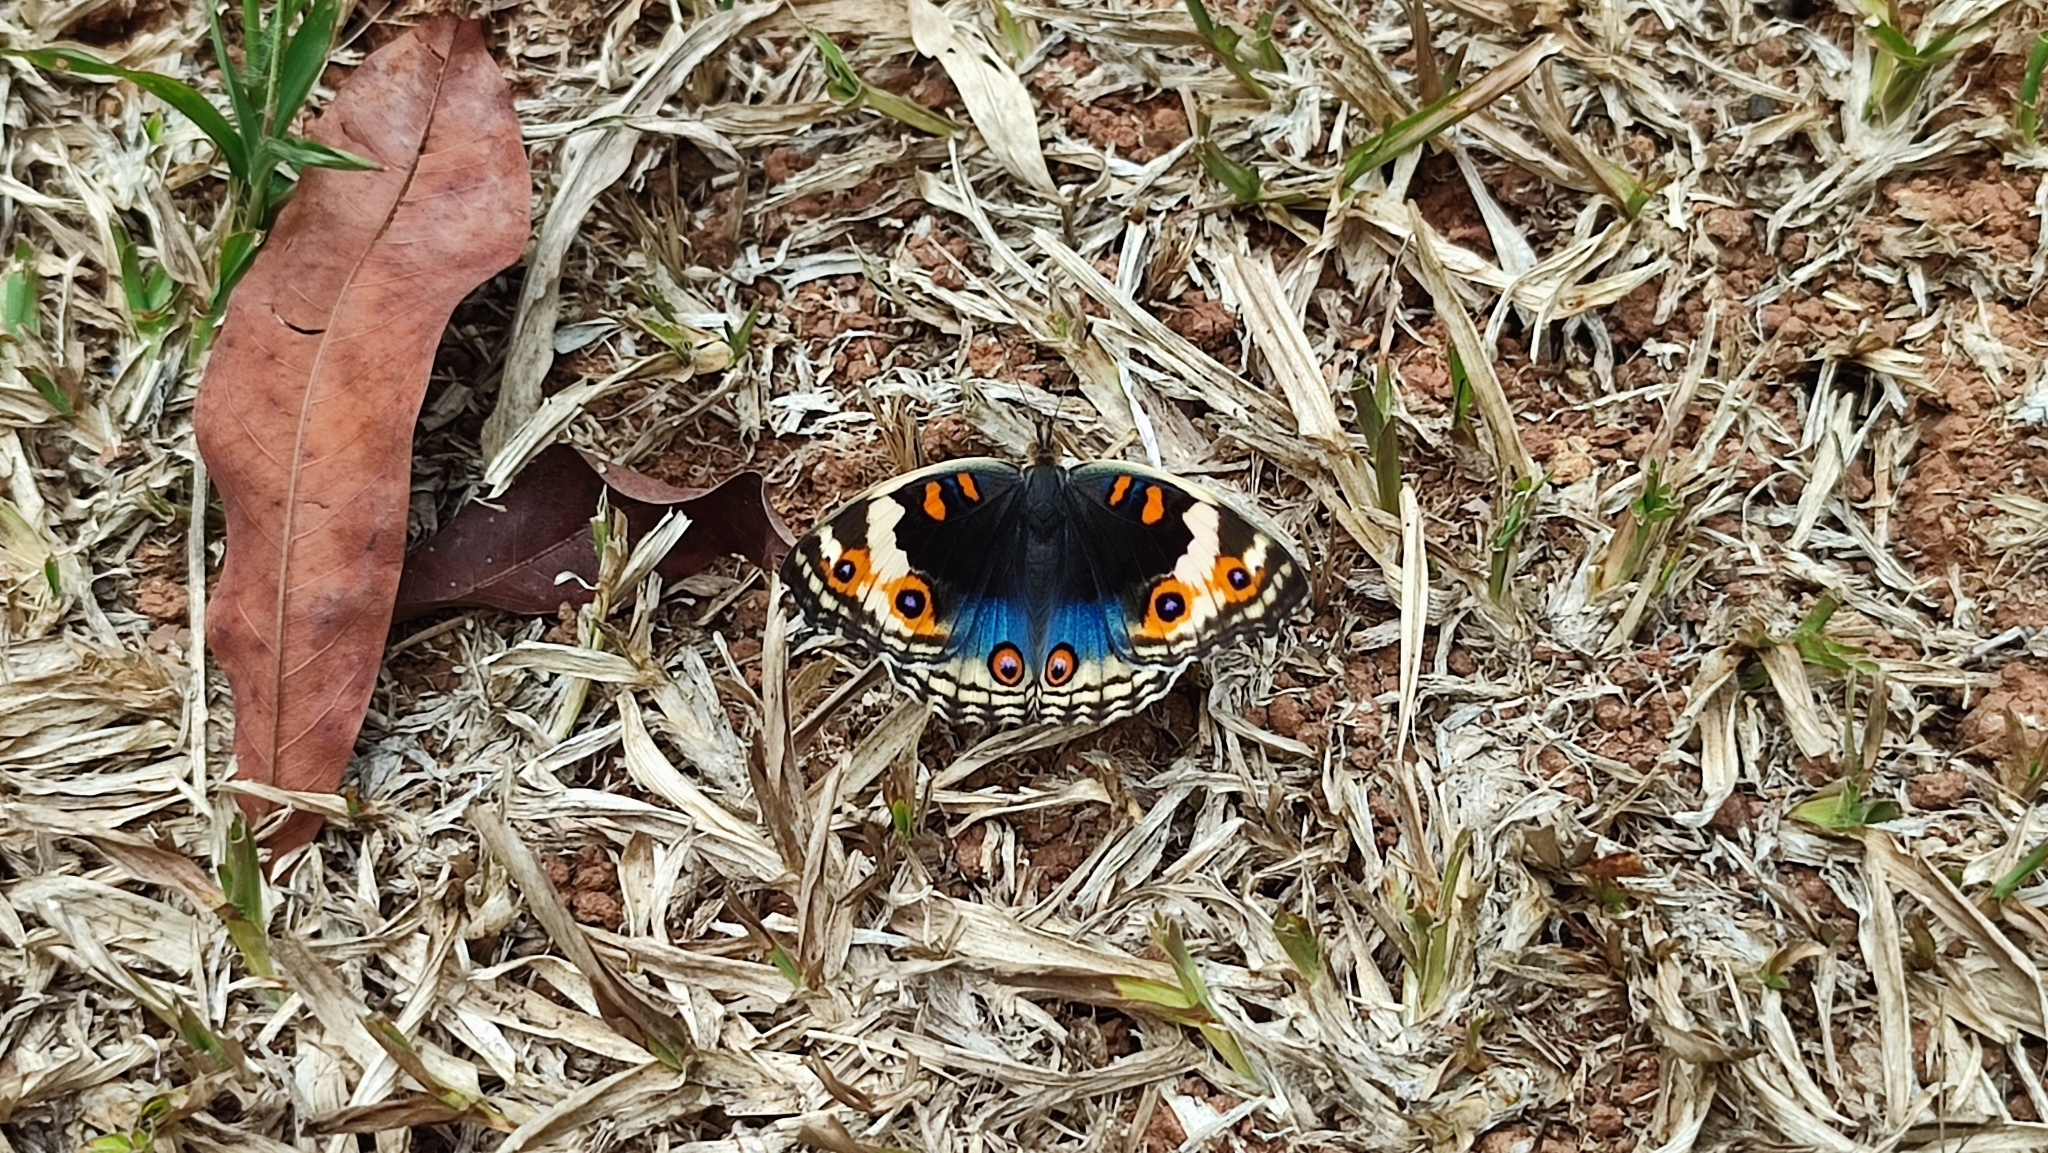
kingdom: Animalia
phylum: Arthropoda
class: Insecta
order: Lepidoptera
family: Nymphalidae
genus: Junonia
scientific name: Junonia orithya
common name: Blue pansy
